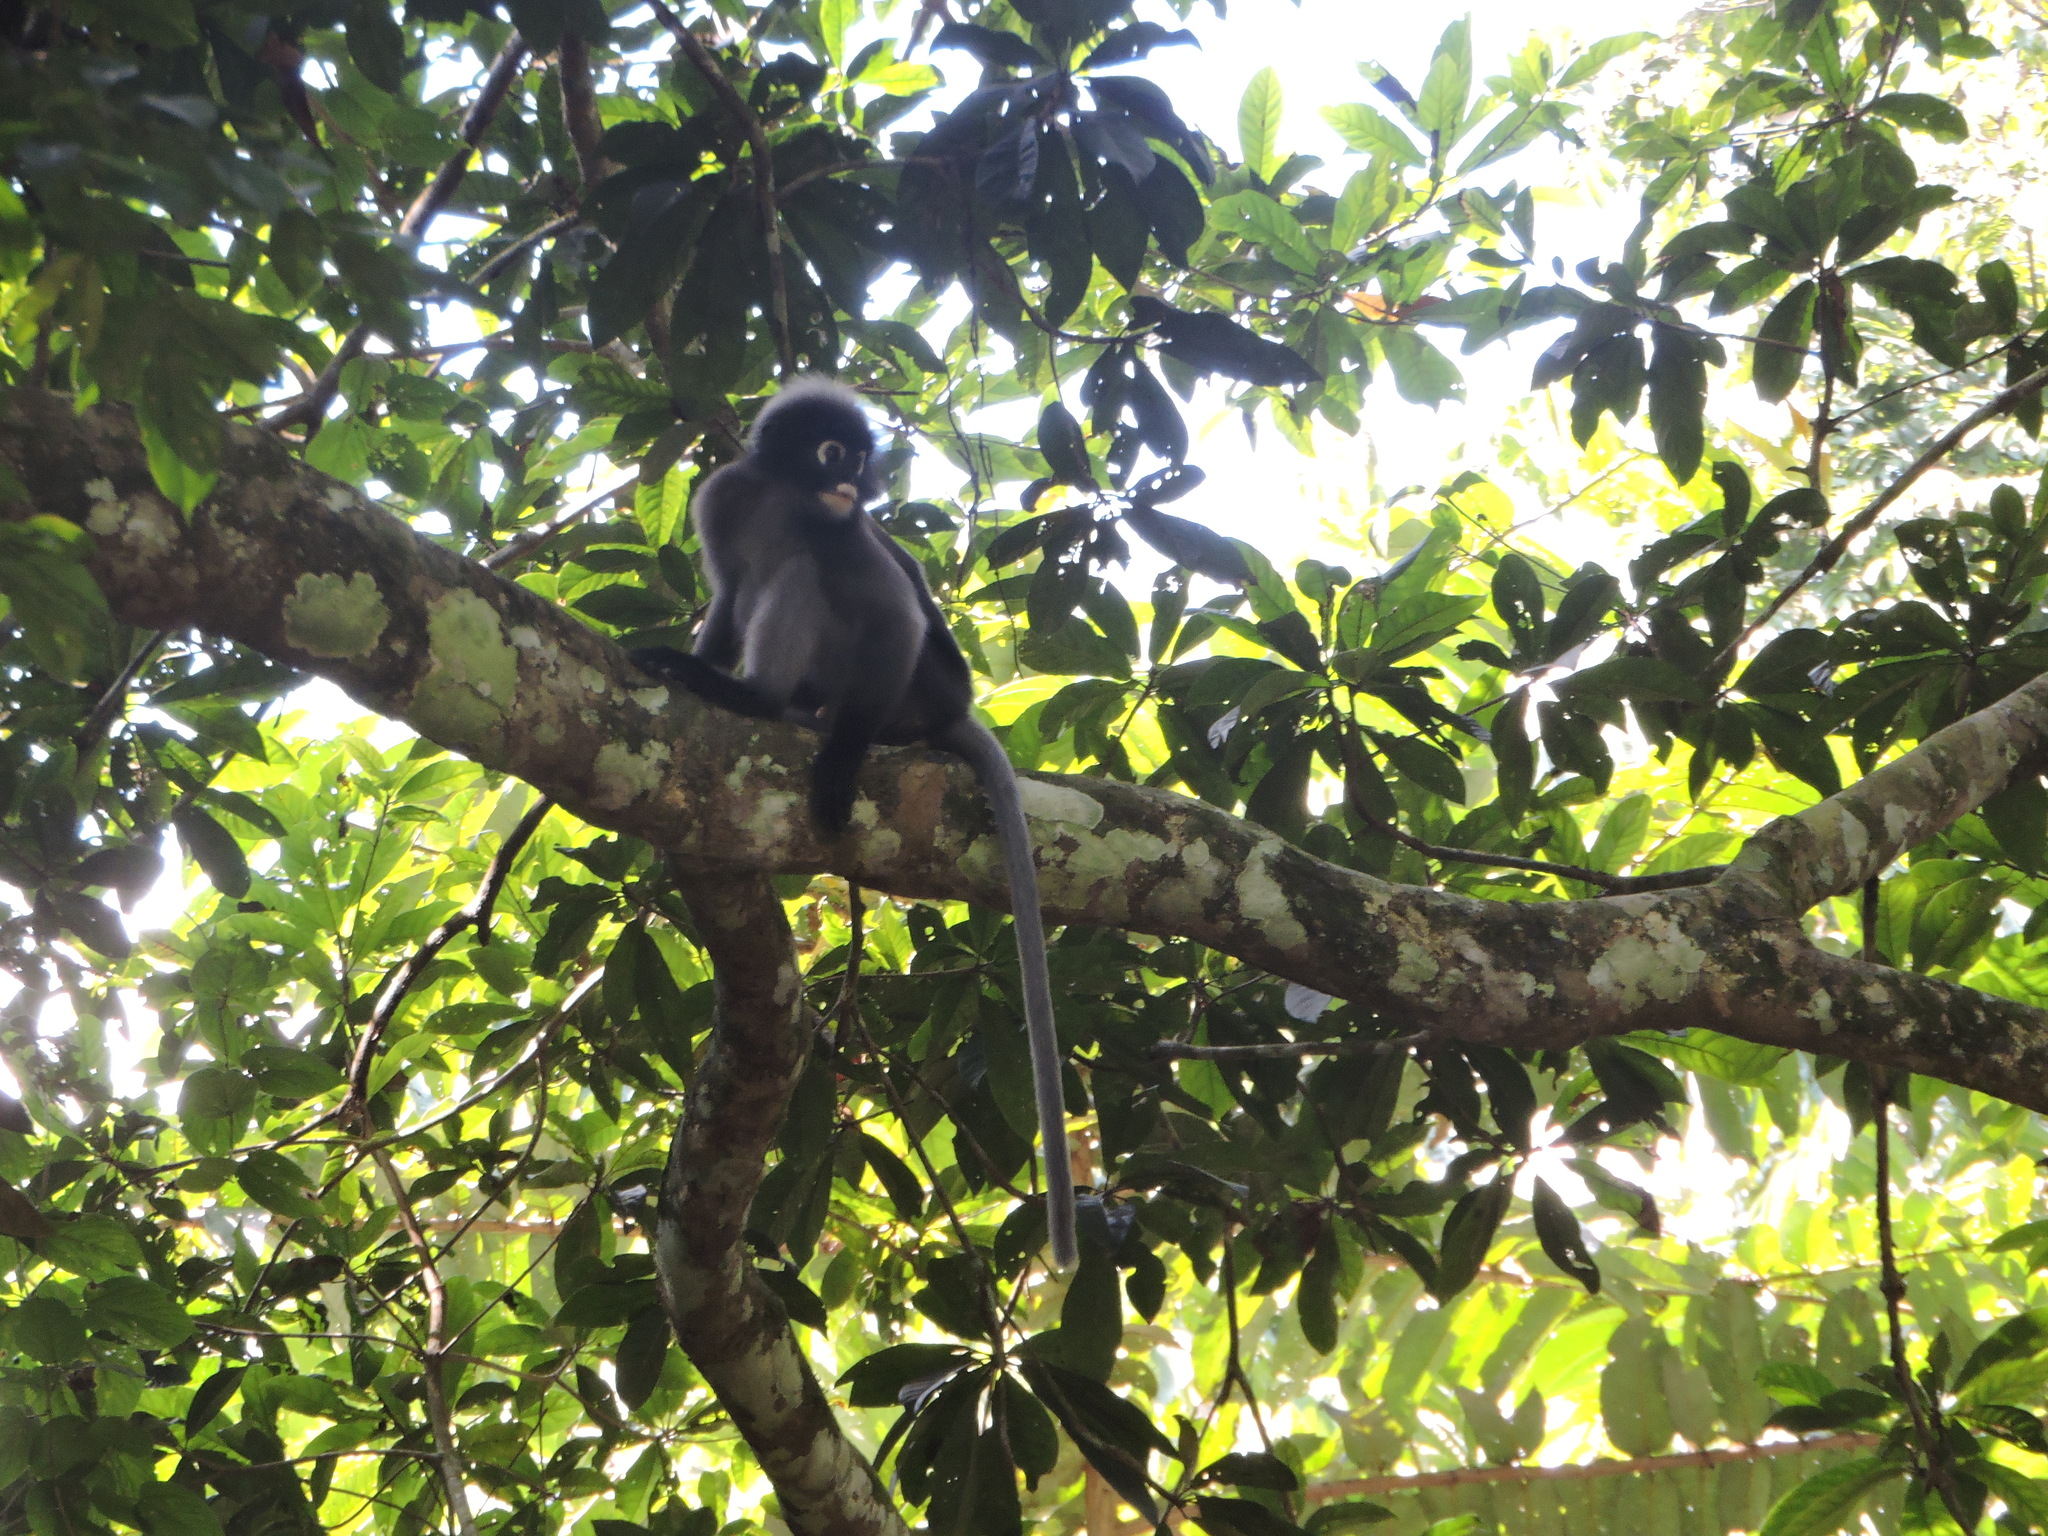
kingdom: Animalia
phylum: Chordata
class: Mammalia
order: Primates
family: Cercopithecidae
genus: Trachypithecus
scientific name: Trachypithecus obscurus
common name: Dusky leaf-monkey
